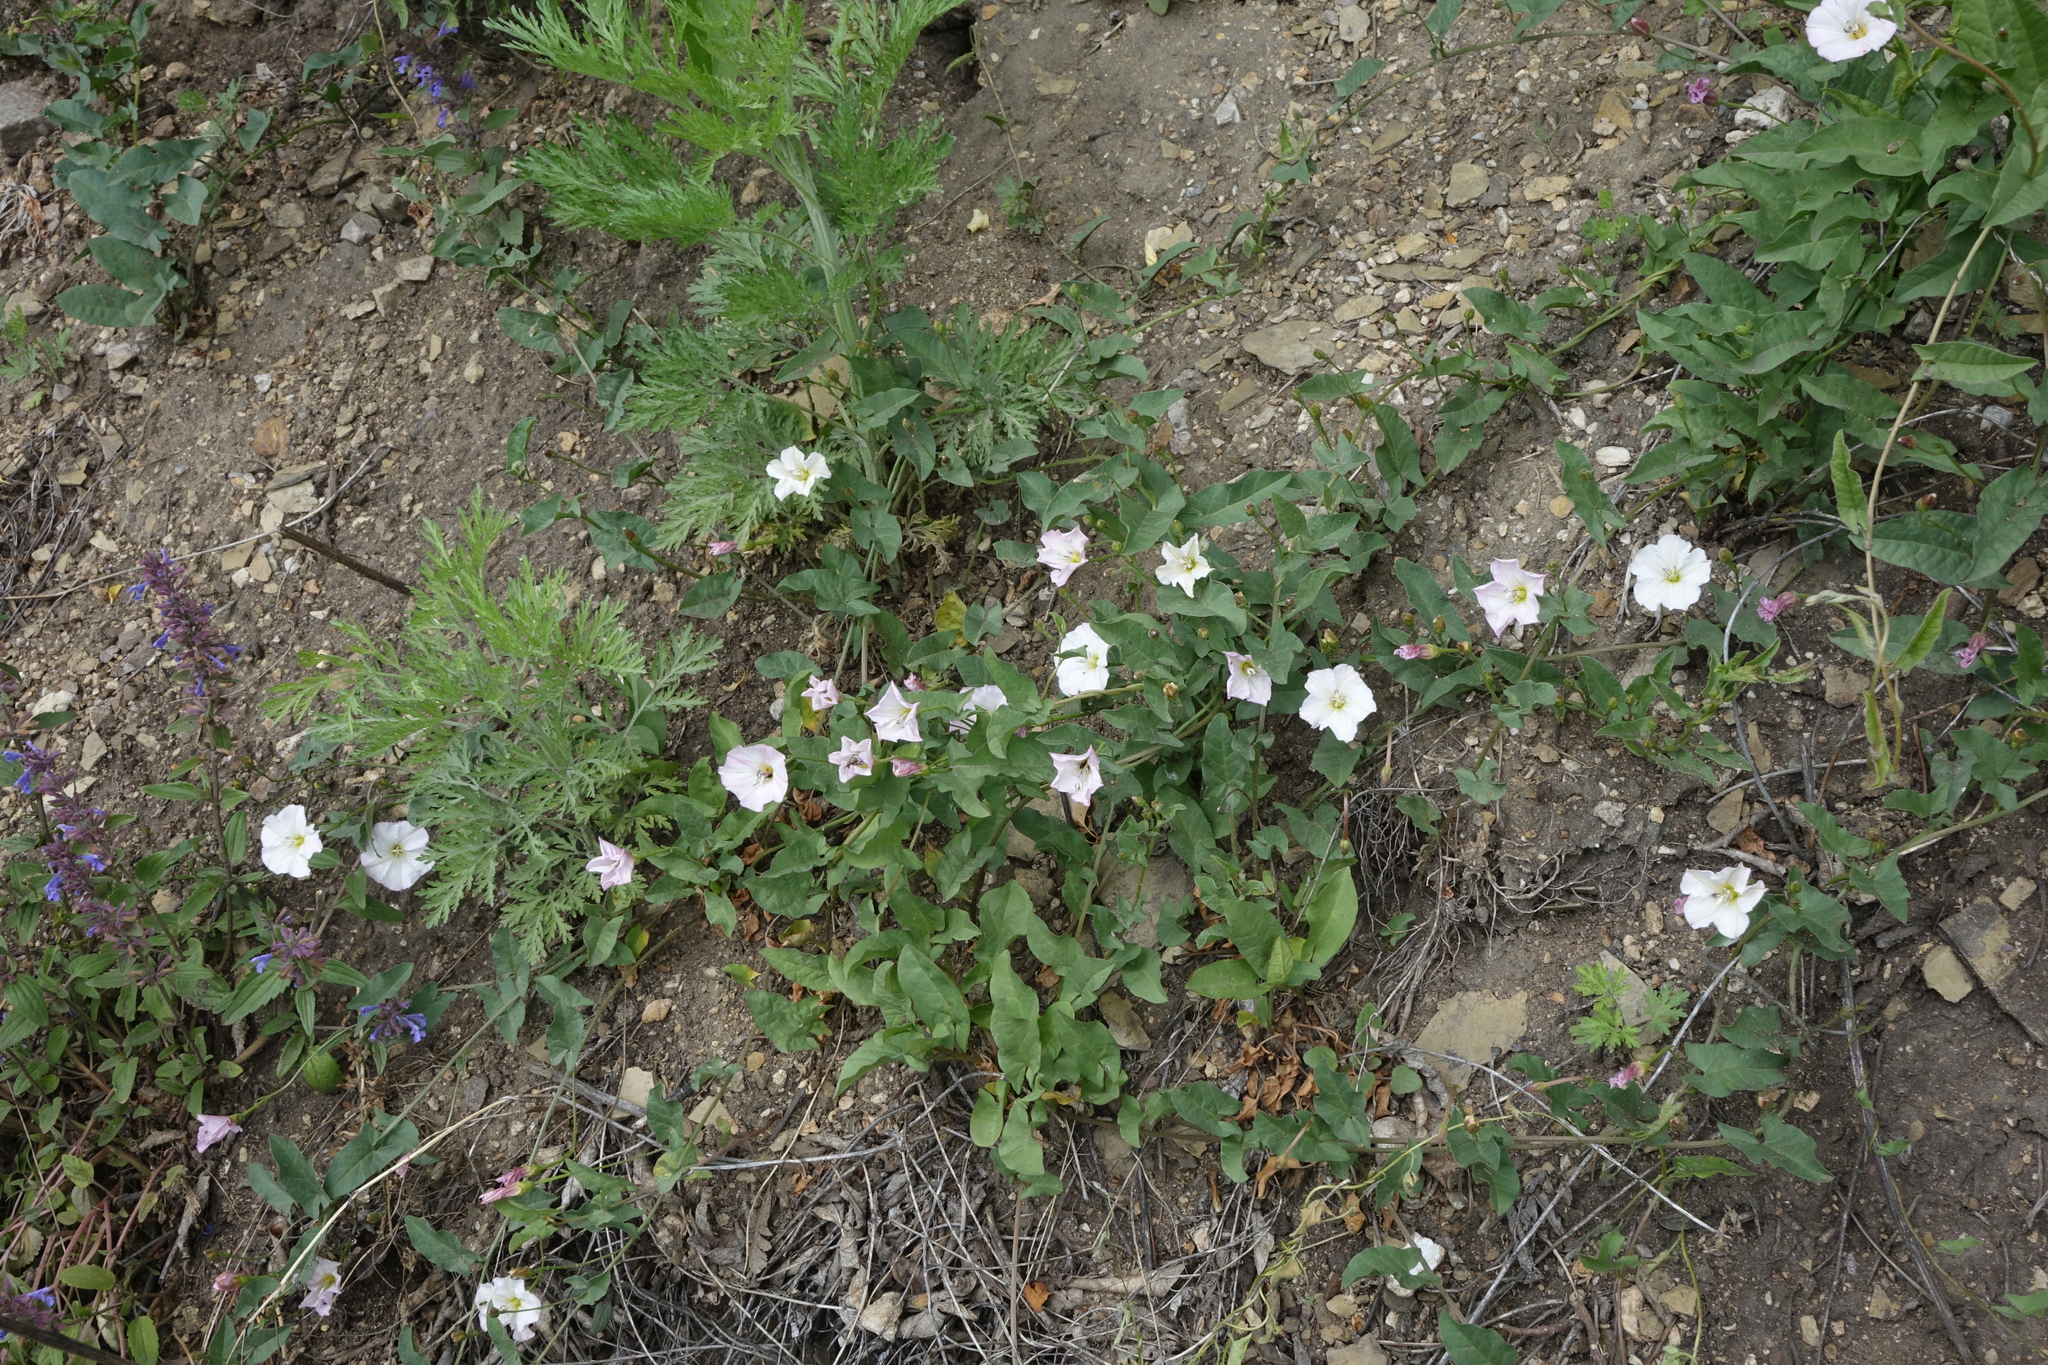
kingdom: Plantae
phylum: Tracheophyta
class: Magnoliopsida
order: Solanales
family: Convolvulaceae
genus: Convolvulus
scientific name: Convolvulus arvensis
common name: Field bindweed
